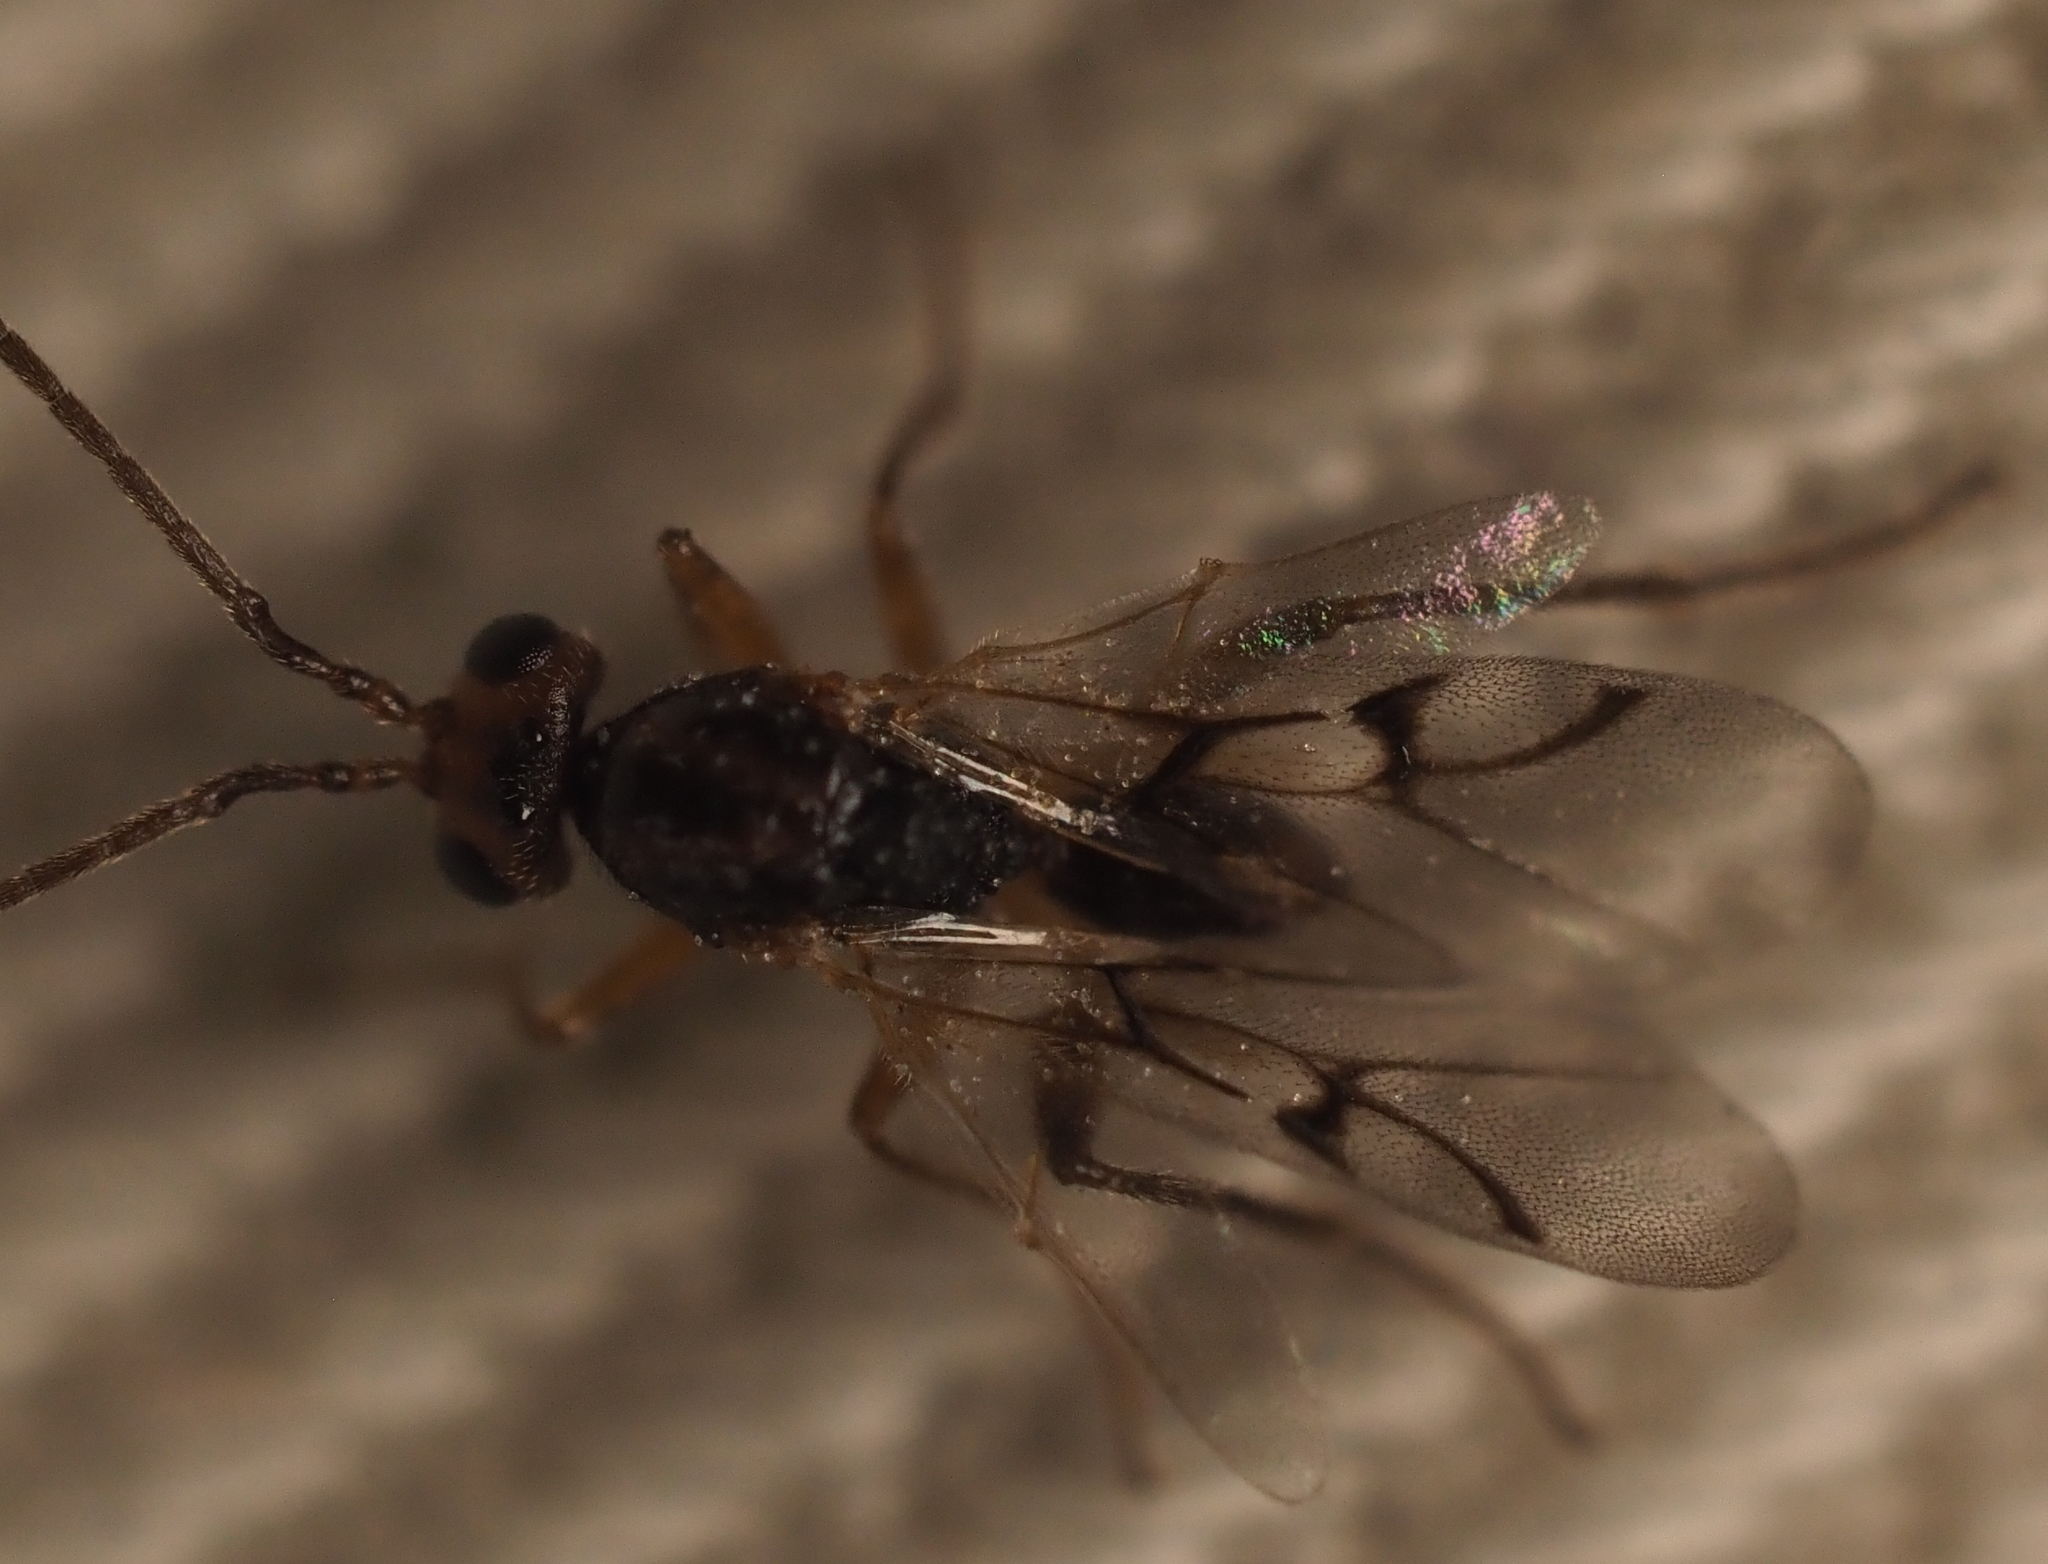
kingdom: Animalia
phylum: Arthropoda
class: Insecta
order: Hymenoptera
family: Cynipidae
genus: Belonocnema
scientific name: Belonocnema kinseyi
